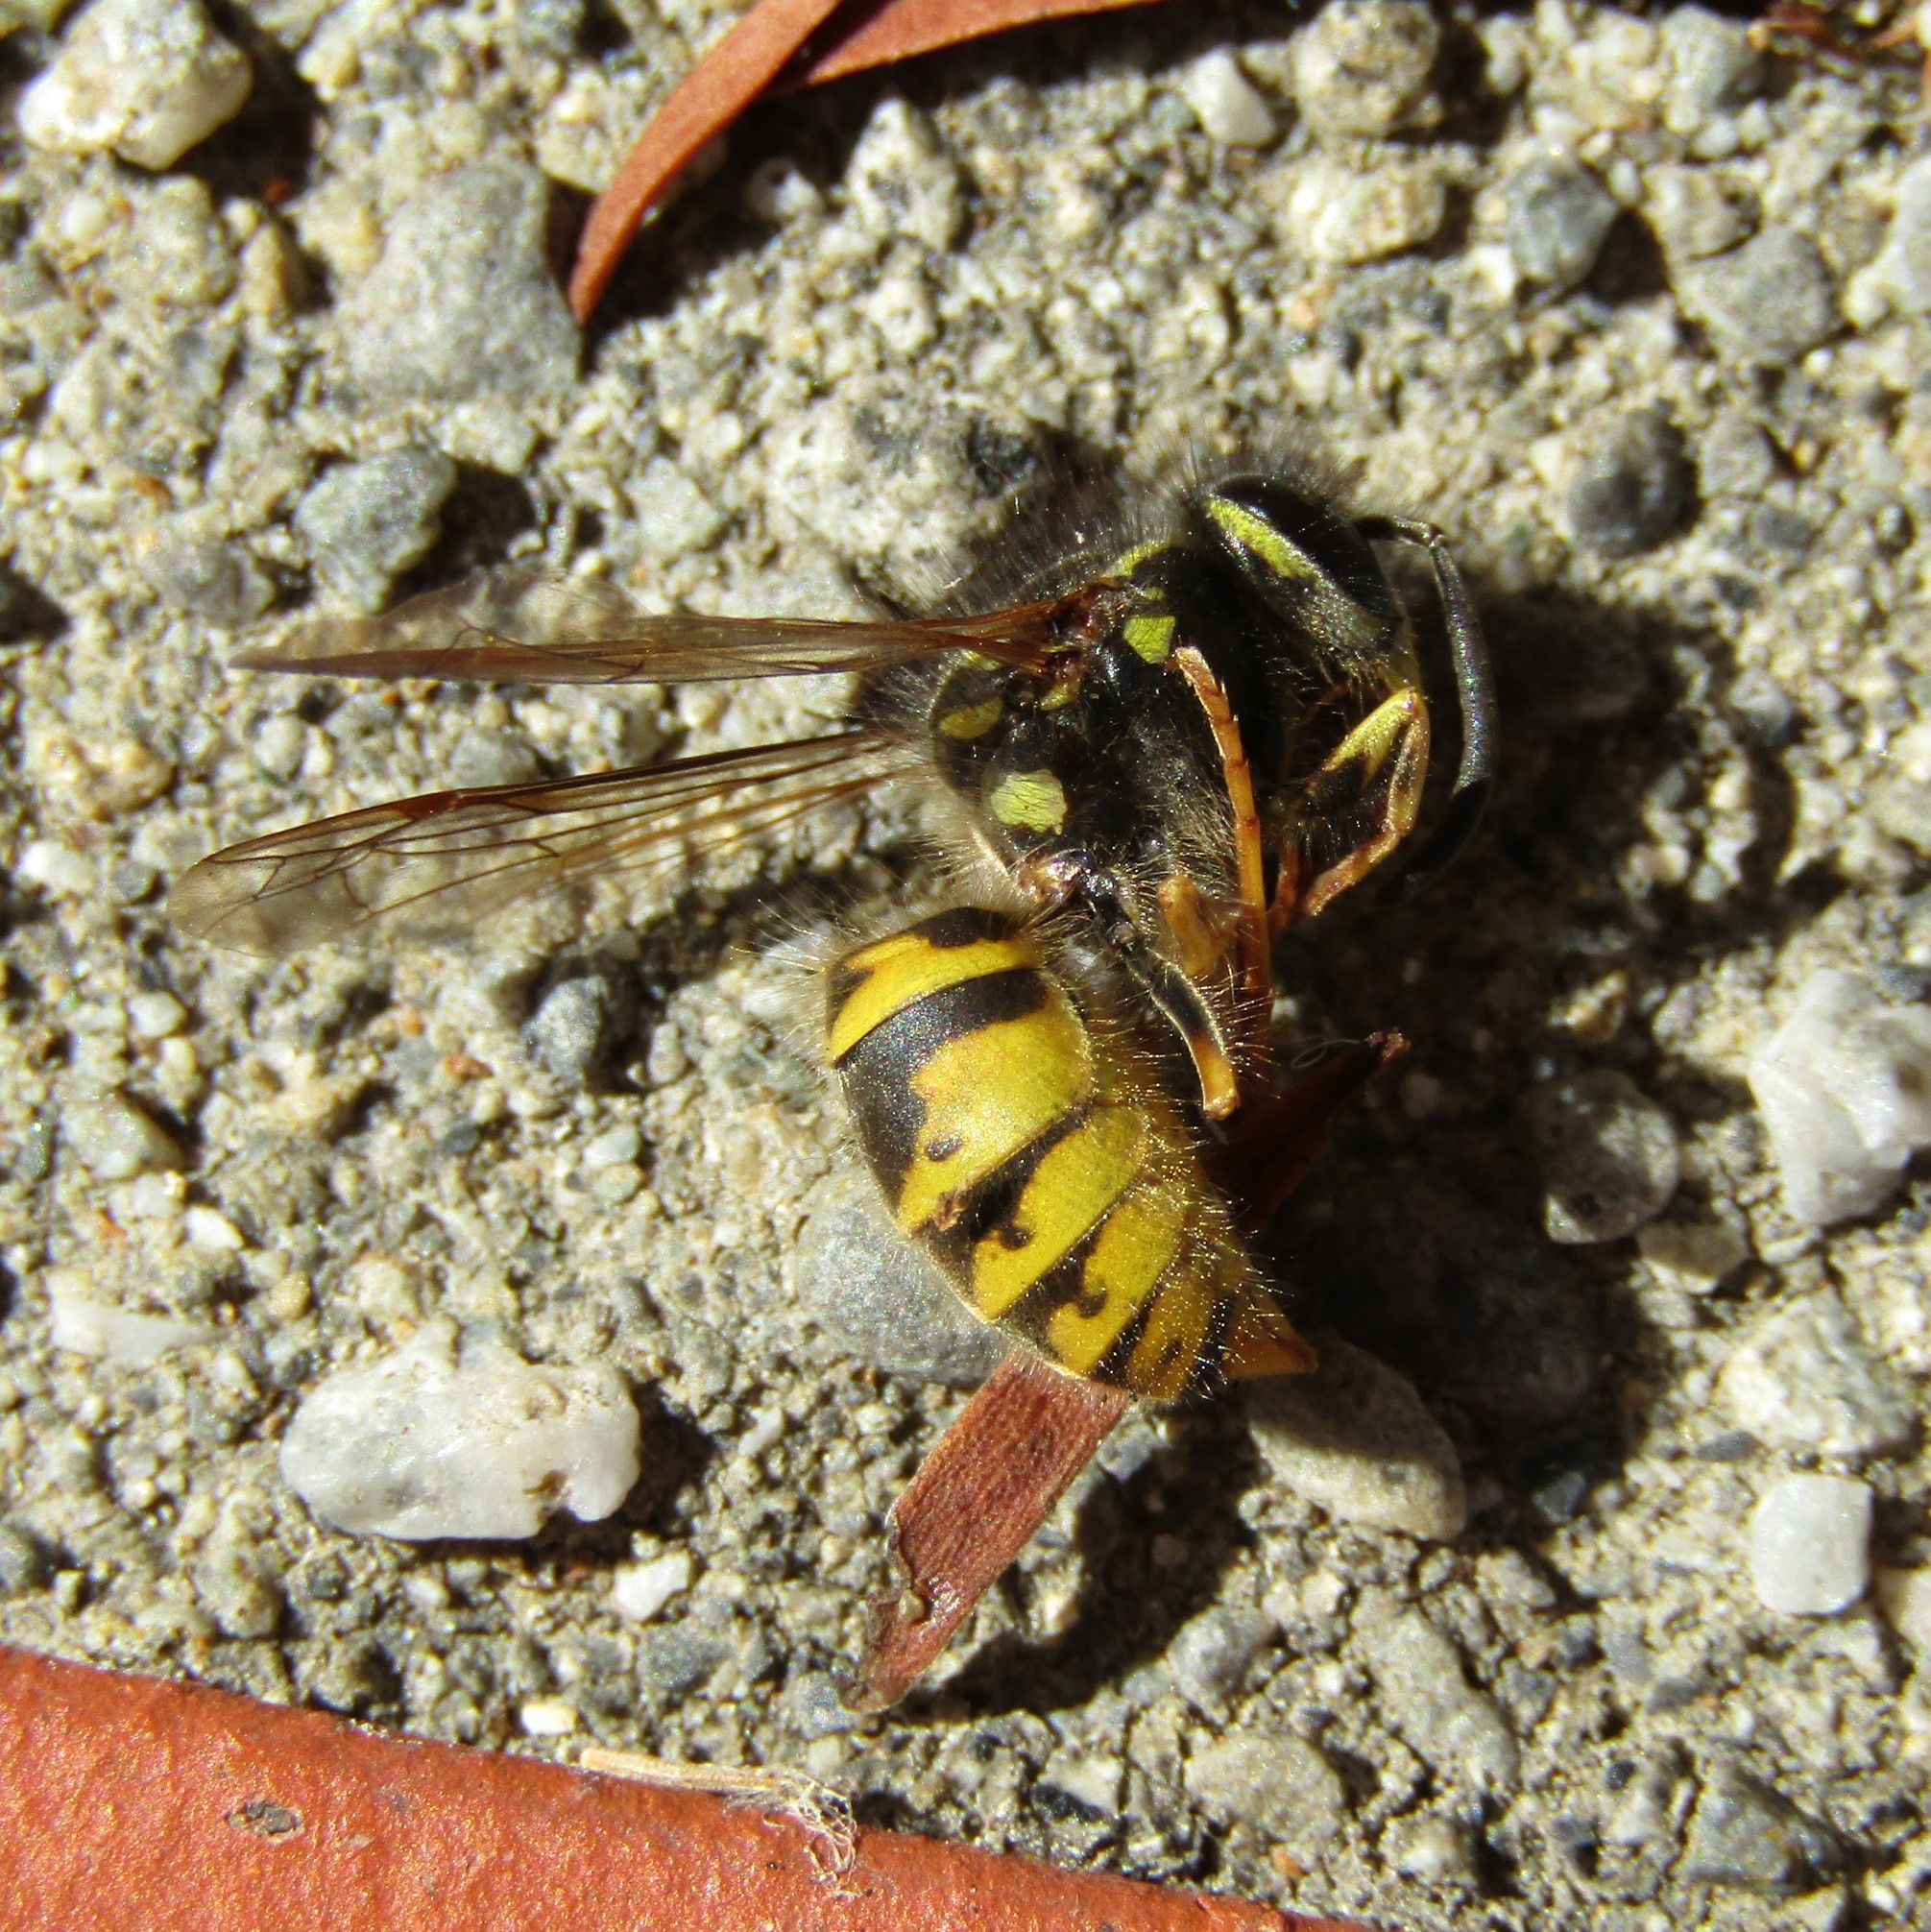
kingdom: Animalia
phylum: Arthropoda
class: Insecta
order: Hymenoptera
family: Vespidae
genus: Vespula
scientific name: Vespula vulgaris
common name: Common wasp
